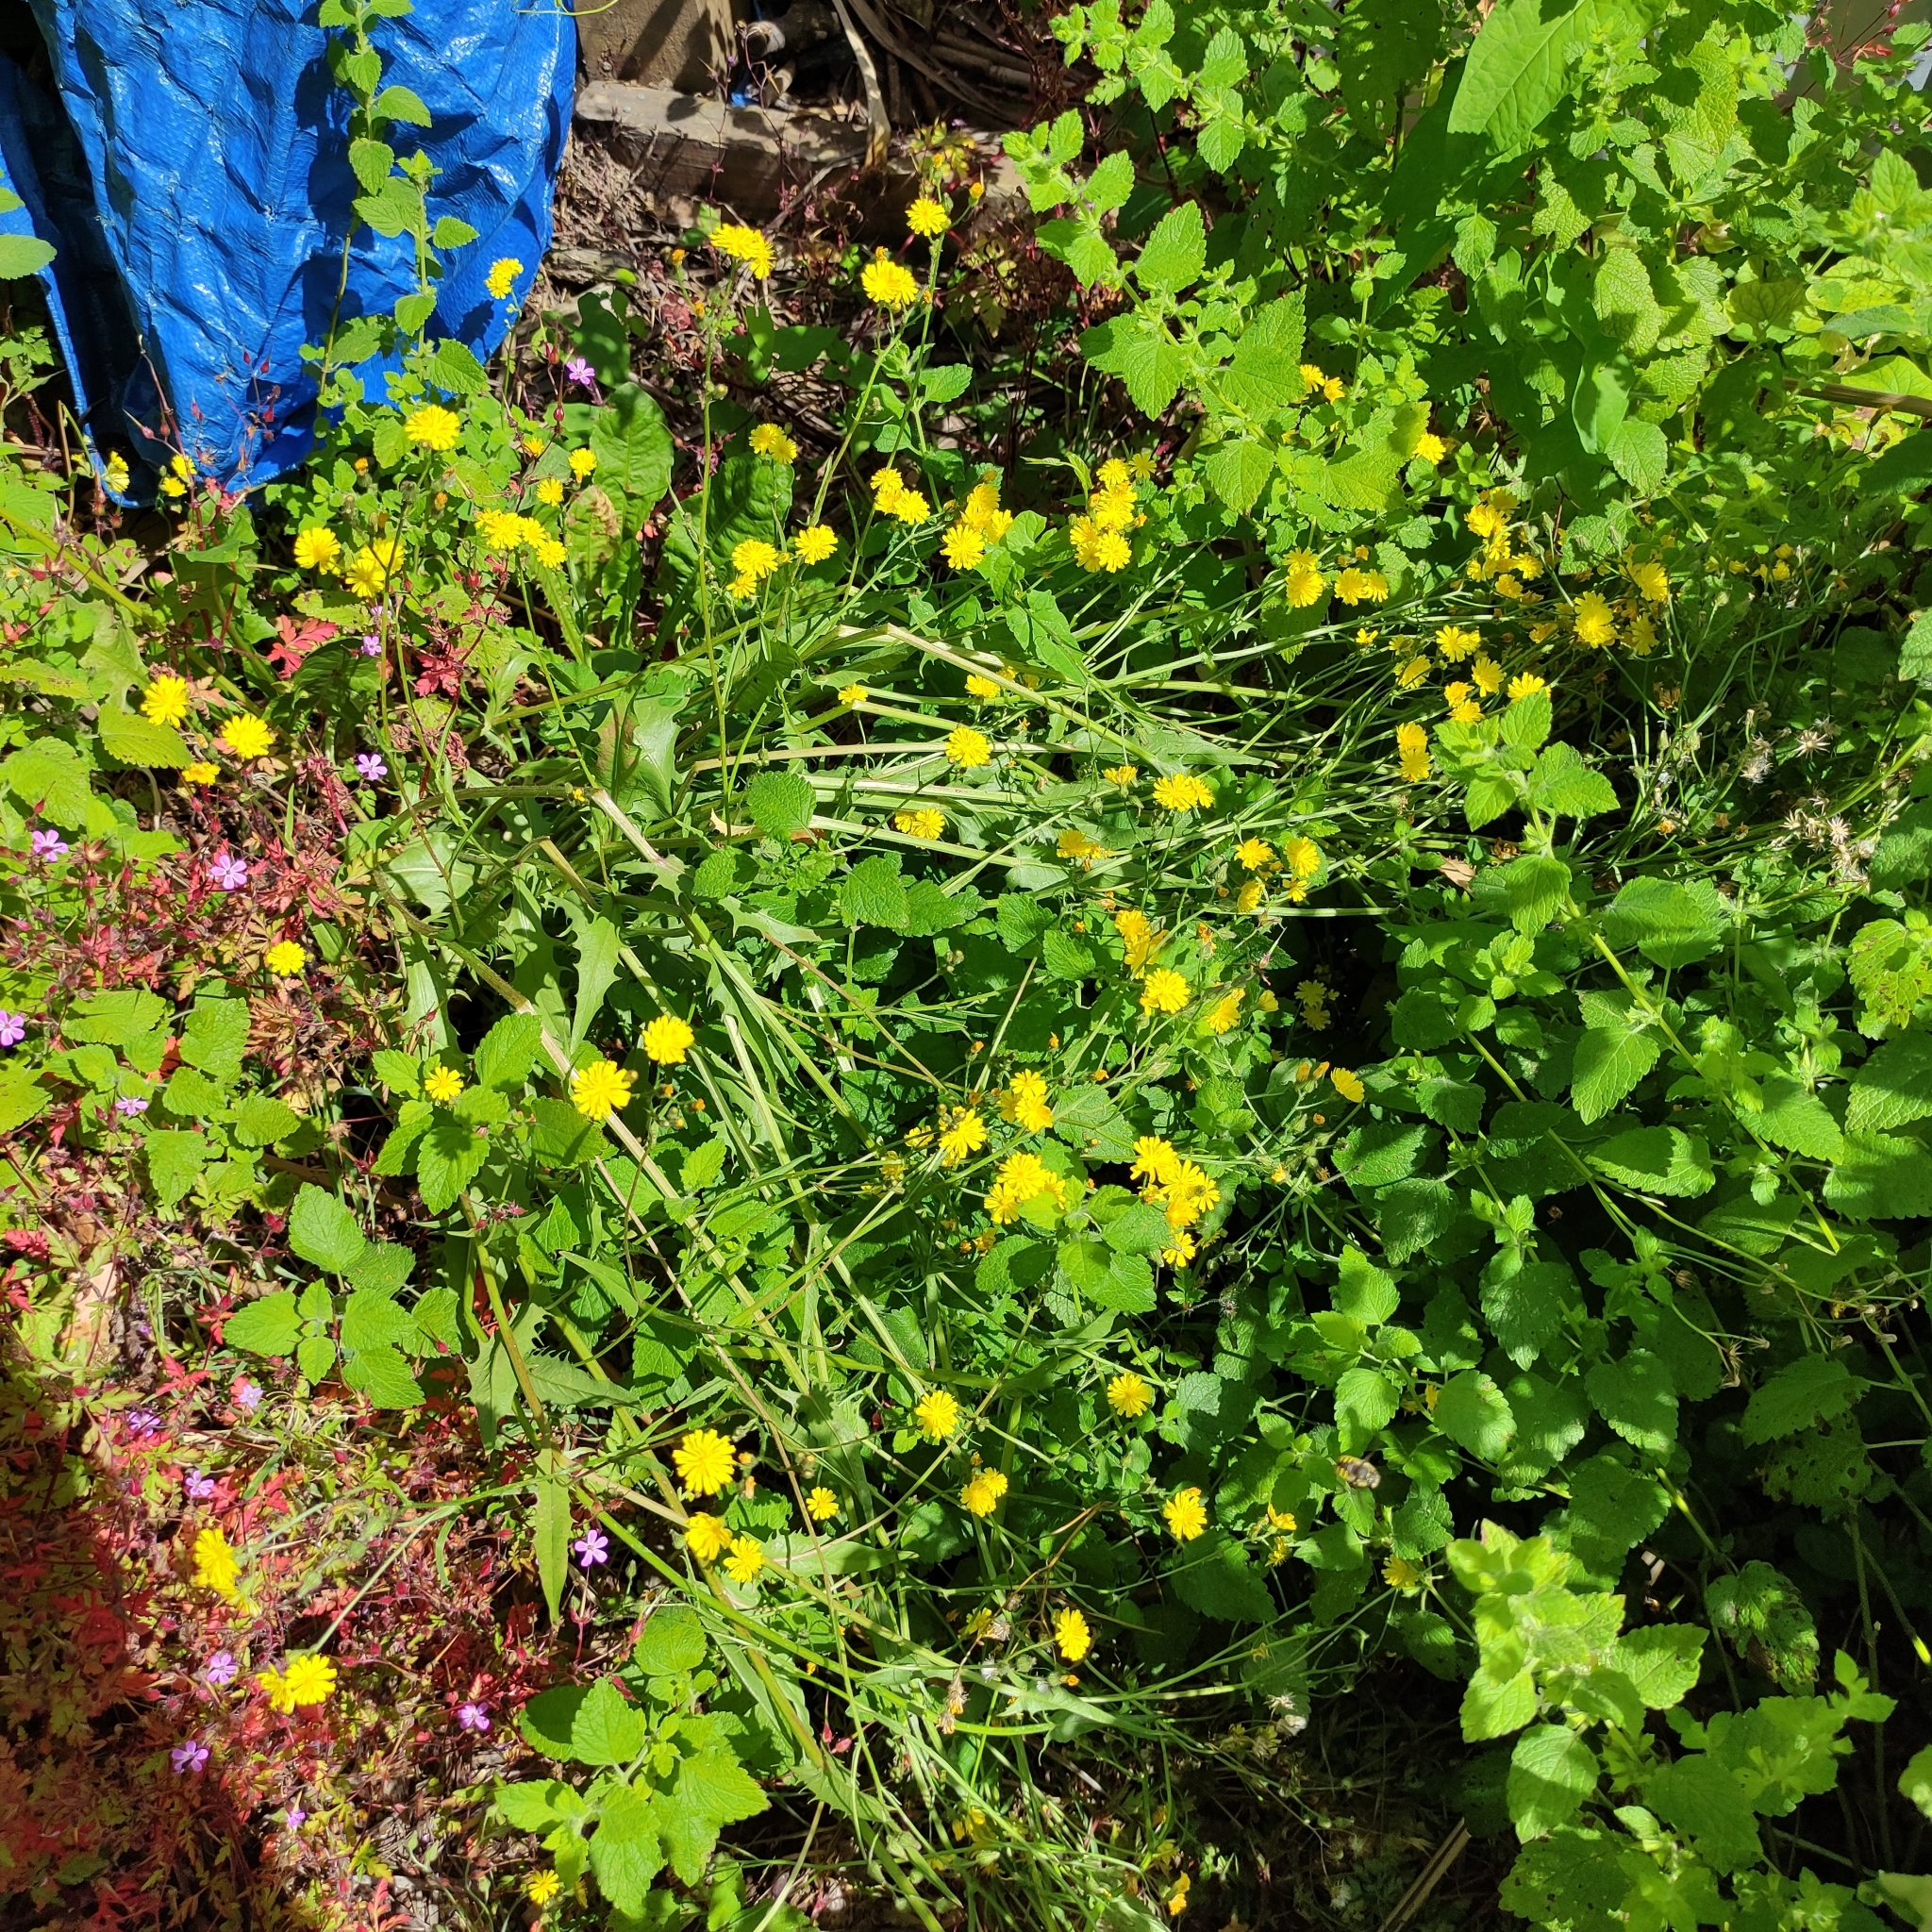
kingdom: Plantae
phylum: Tracheophyta
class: Magnoliopsida
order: Asterales
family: Asteraceae
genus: Crepis
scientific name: Crepis capillaris
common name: Smooth hawksbeard
